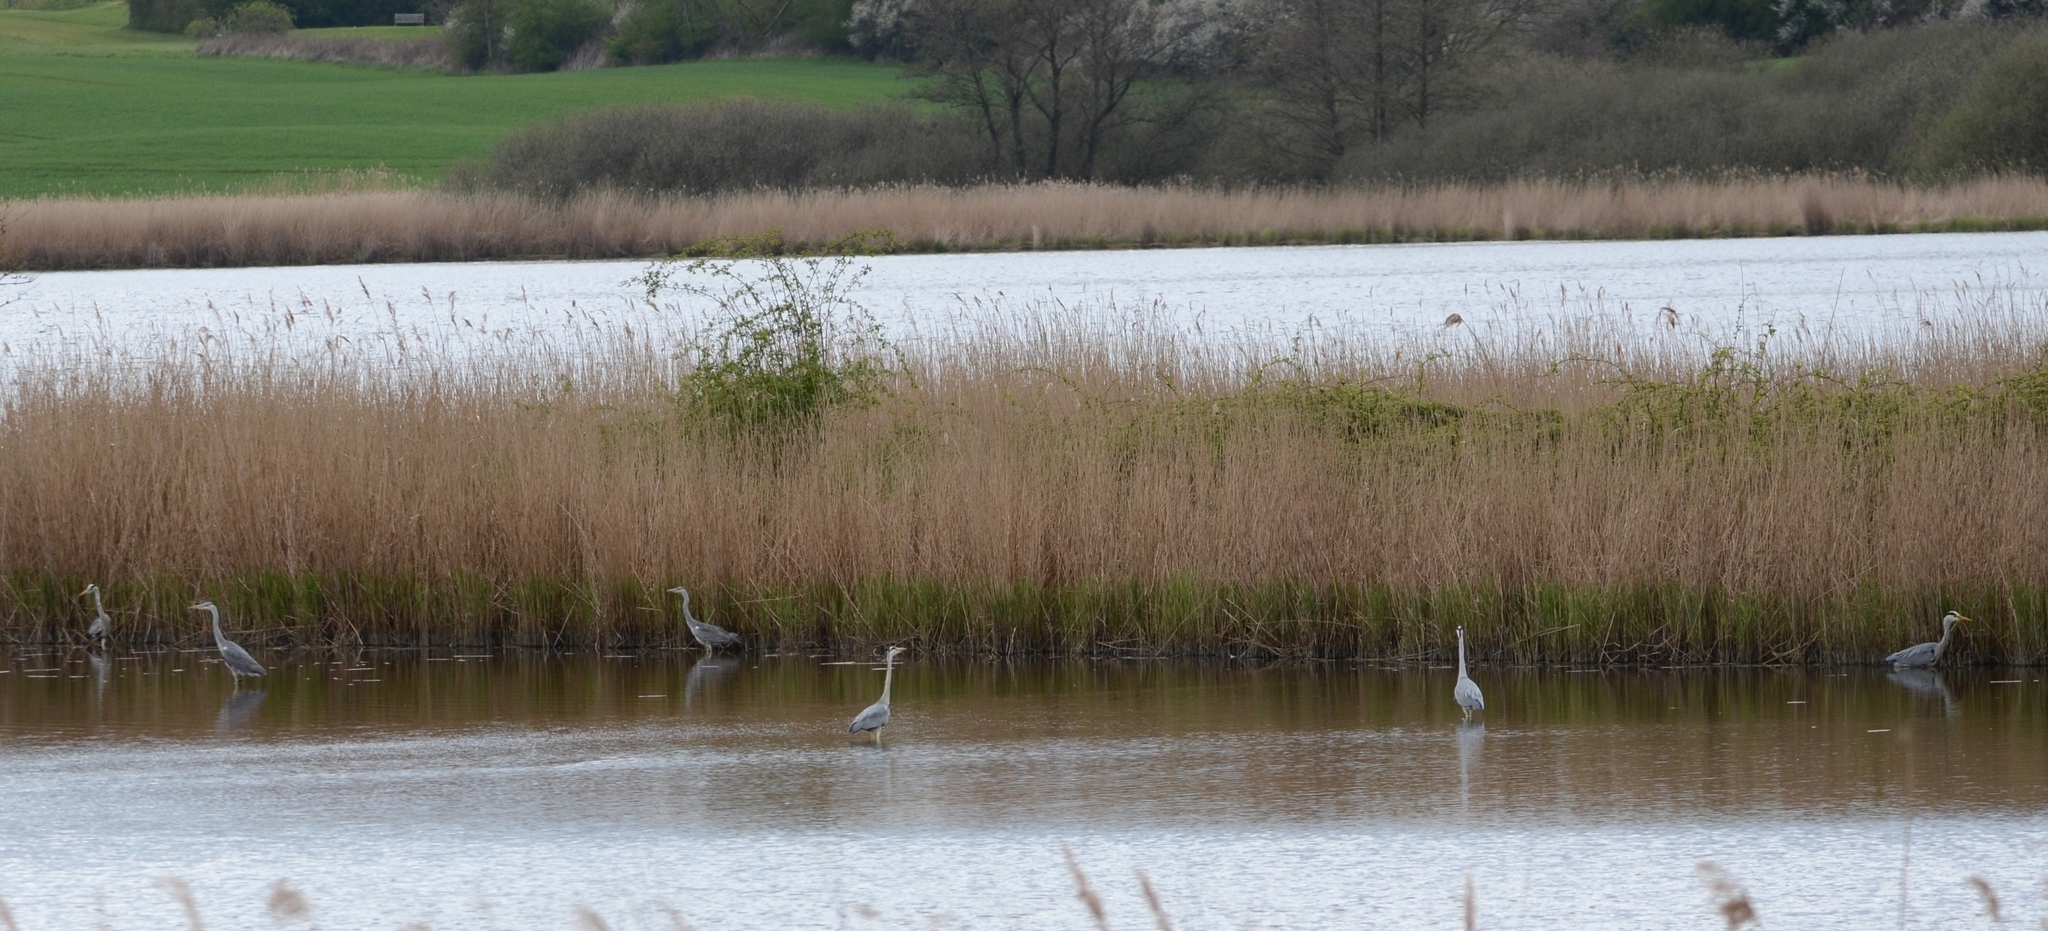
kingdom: Animalia
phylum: Chordata
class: Aves
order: Pelecaniformes
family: Ardeidae
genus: Ardea
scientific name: Ardea cinerea
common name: Grey heron
